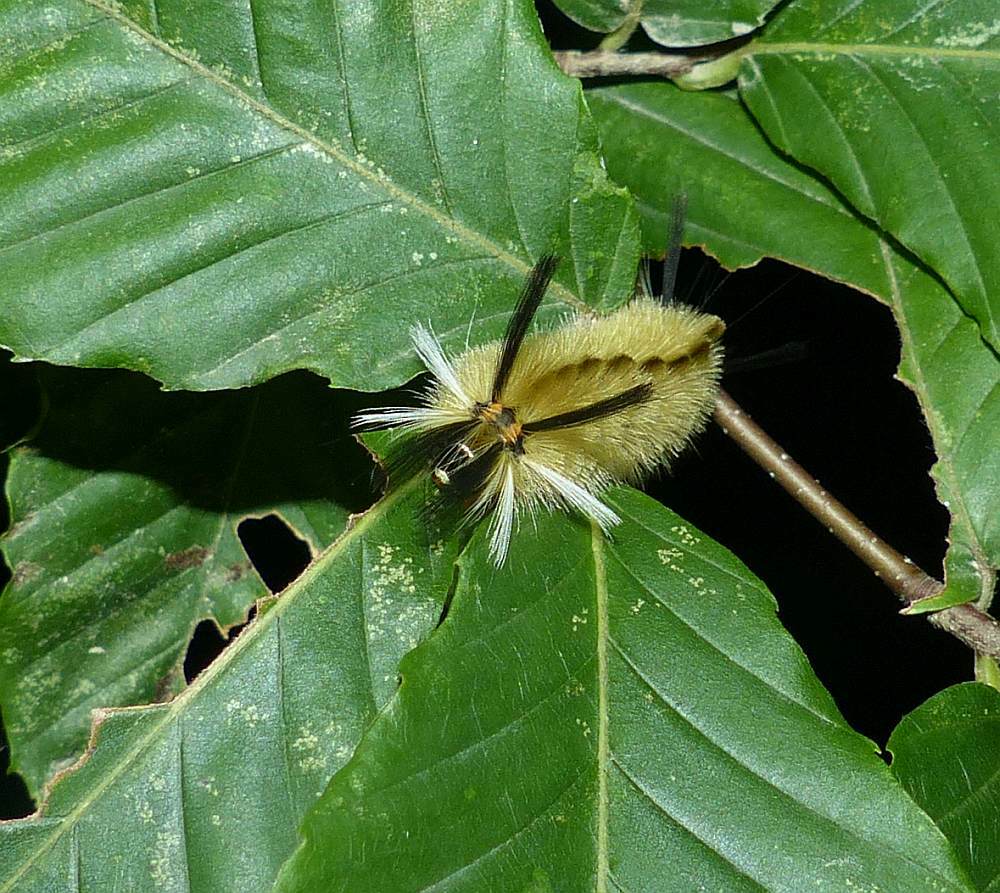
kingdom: Animalia
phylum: Arthropoda
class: Insecta
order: Lepidoptera
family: Erebidae
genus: Halysidota
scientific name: Halysidota tessellaris
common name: Banded tussock moth
